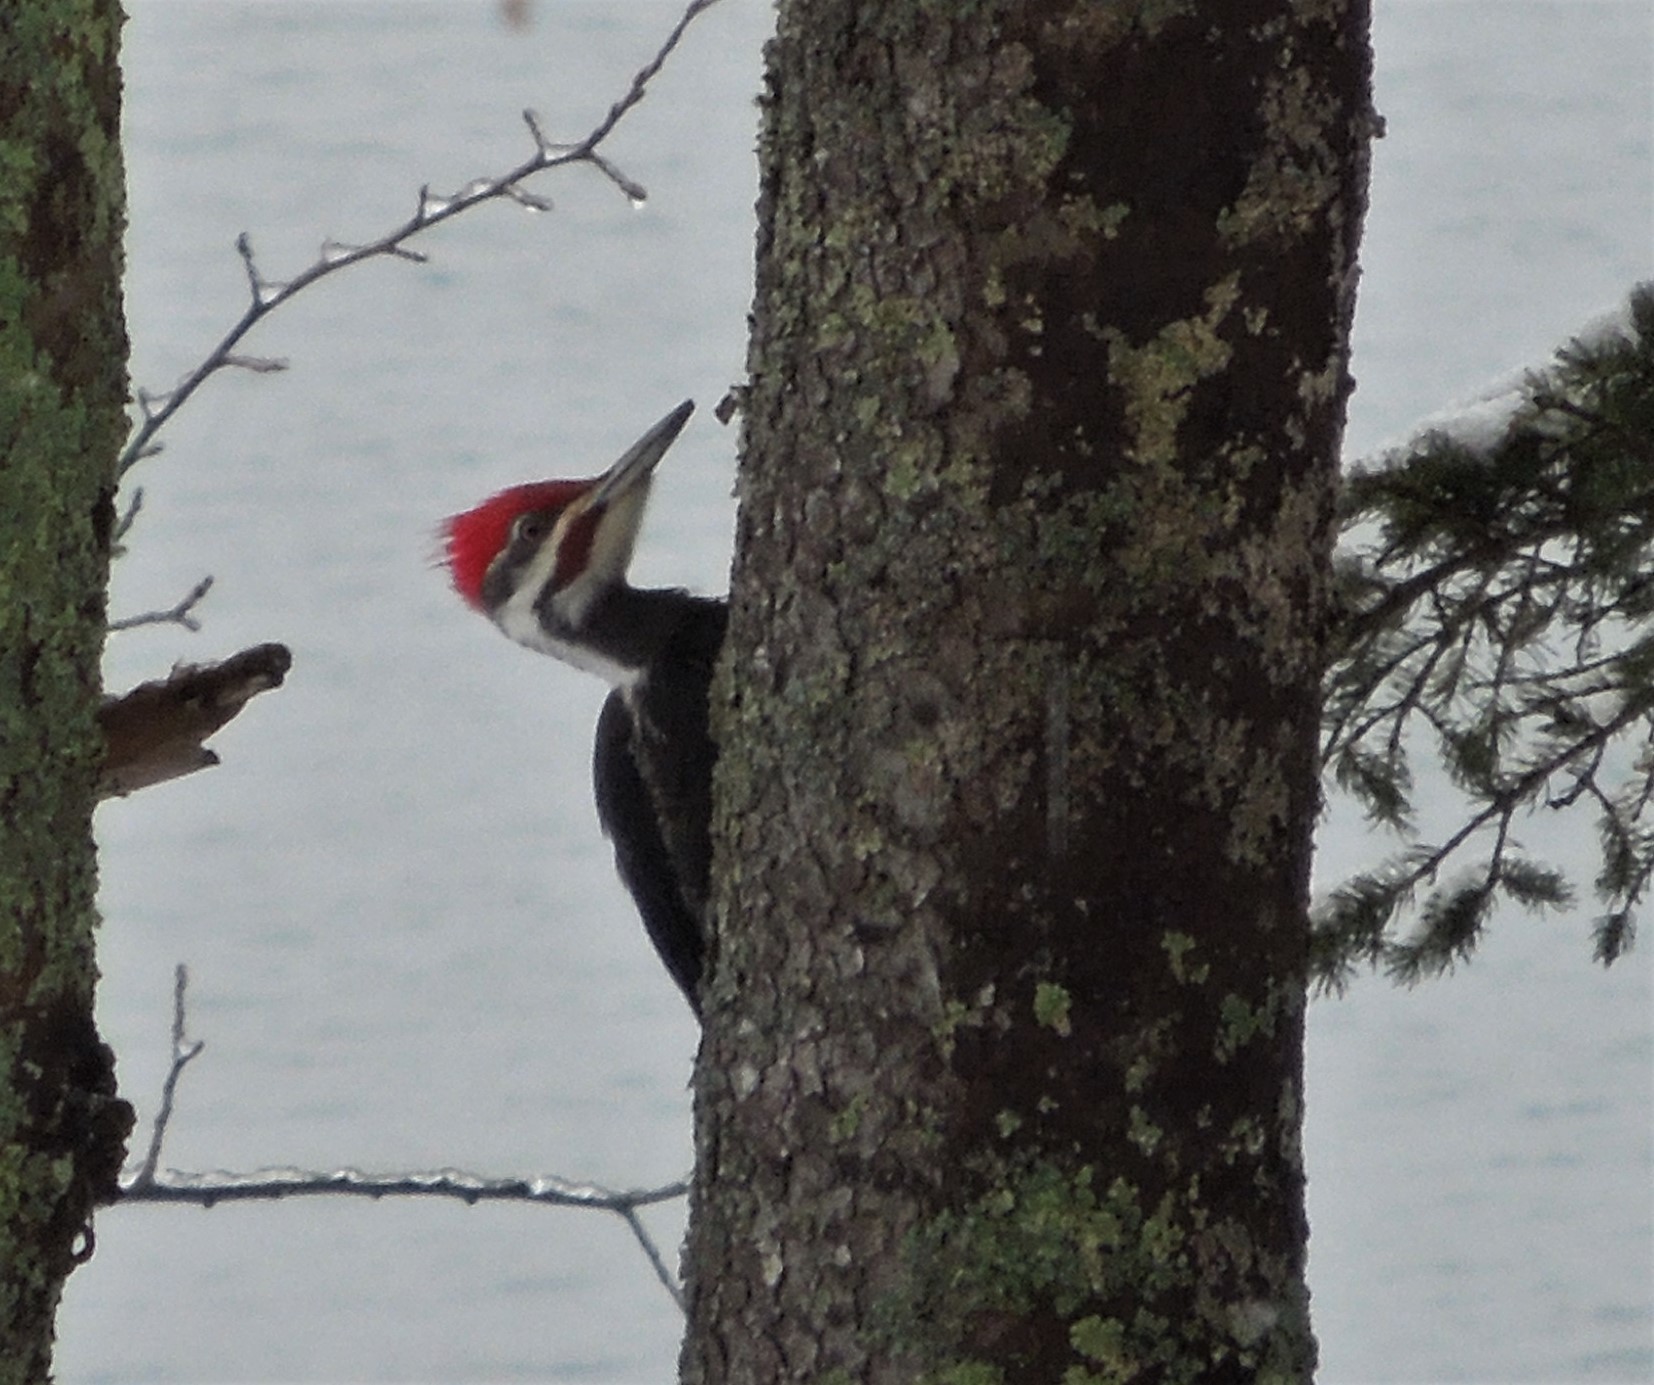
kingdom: Animalia
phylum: Chordata
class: Aves
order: Piciformes
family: Picidae
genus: Dryocopus
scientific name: Dryocopus pileatus
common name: Pileated woodpecker
